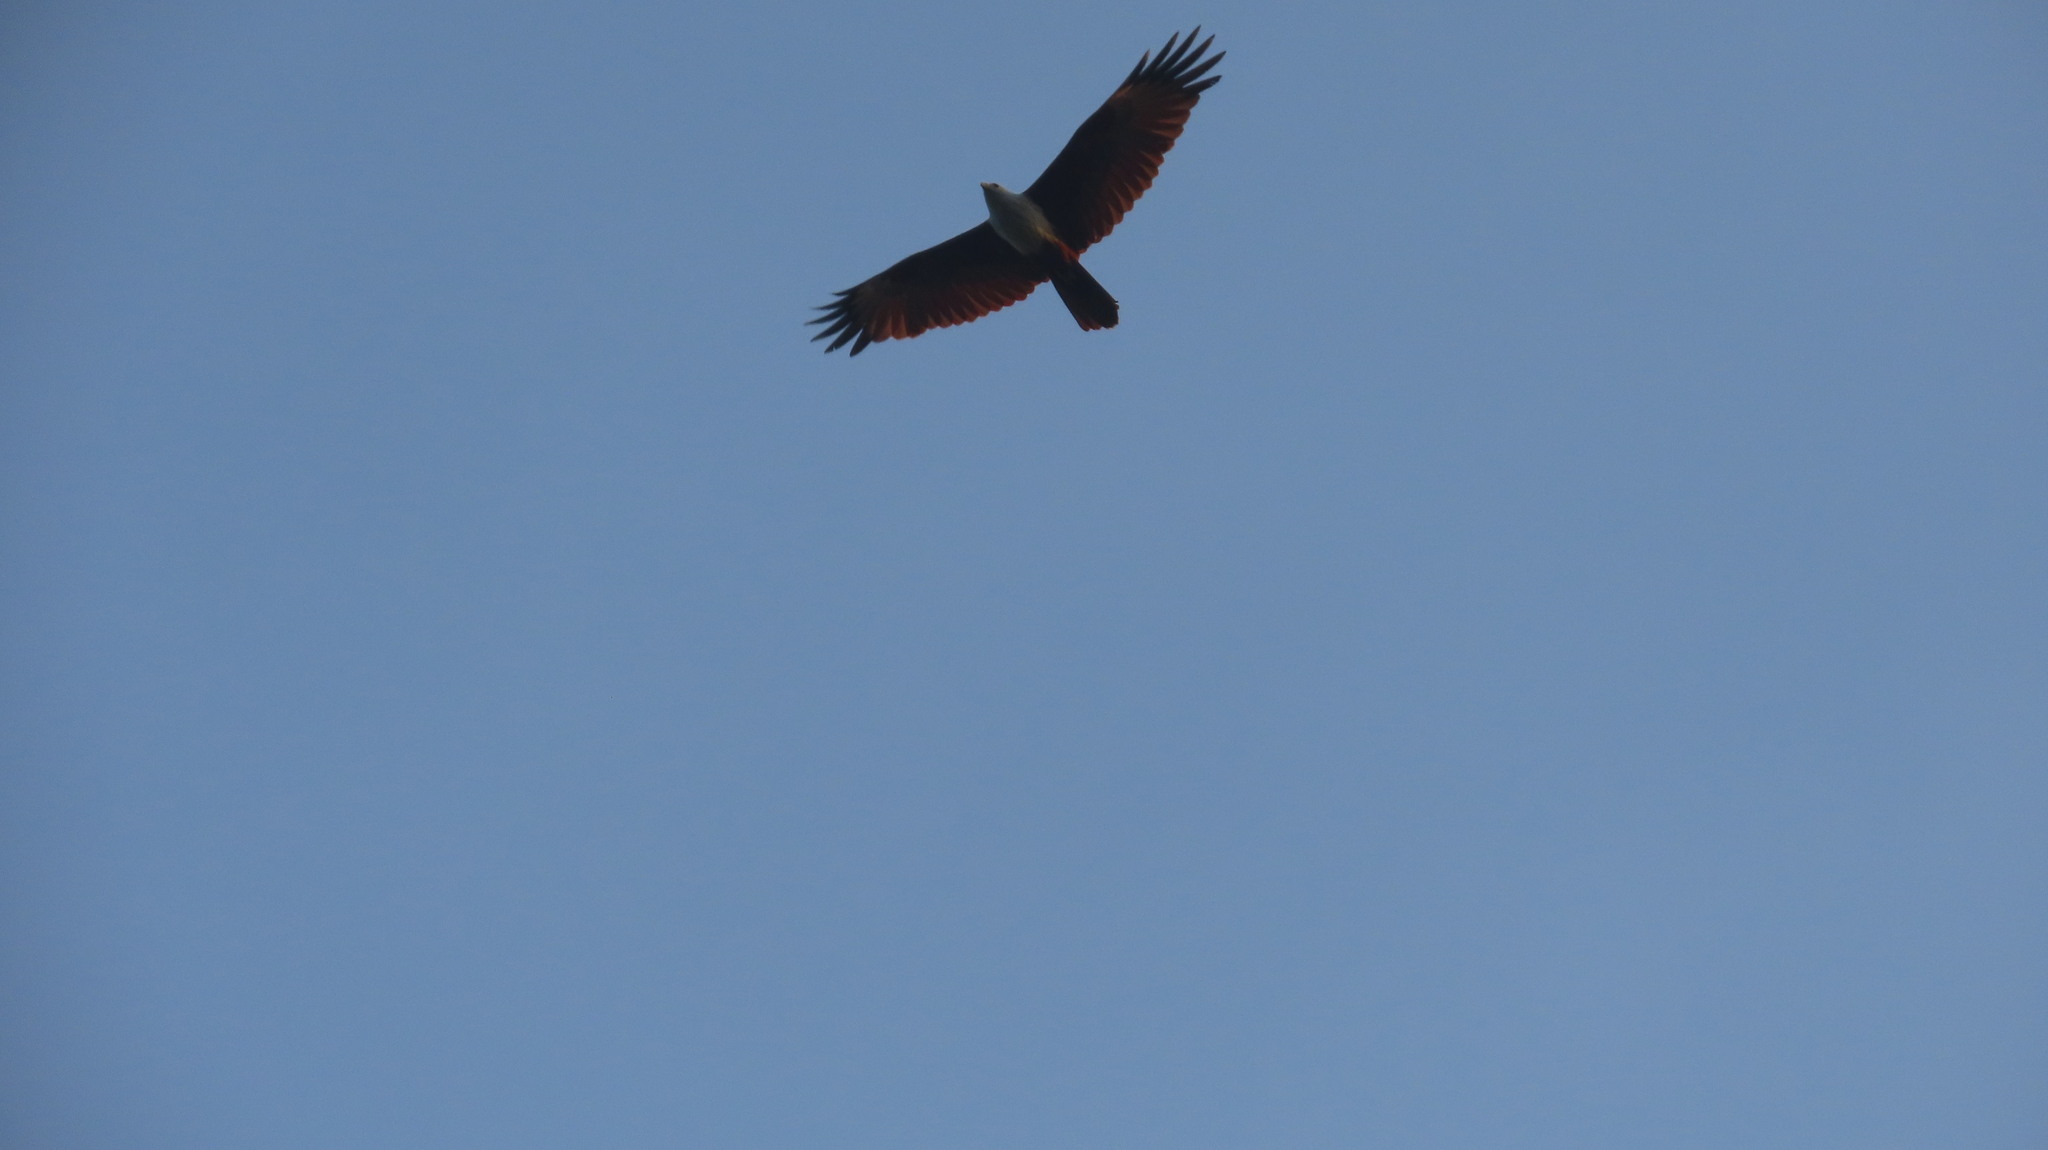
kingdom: Animalia
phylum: Chordata
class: Aves
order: Accipitriformes
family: Accipitridae
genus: Haliastur
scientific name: Haliastur indus
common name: Brahminy kite
